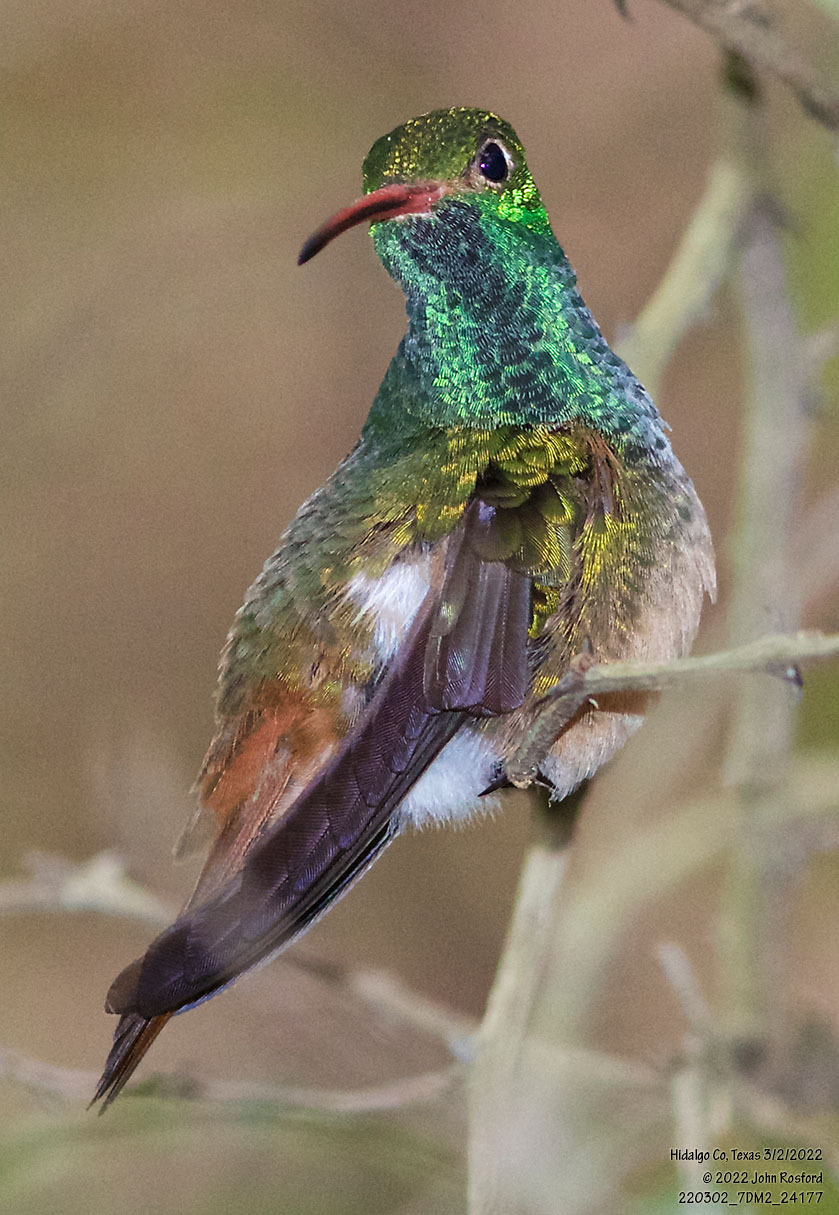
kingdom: Animalia
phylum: Chordata
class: Aves
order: Apodiformes
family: Trochilidae
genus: Amazilia
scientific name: Amazilia yucatanensis
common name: Buff-bellied hummingbird
